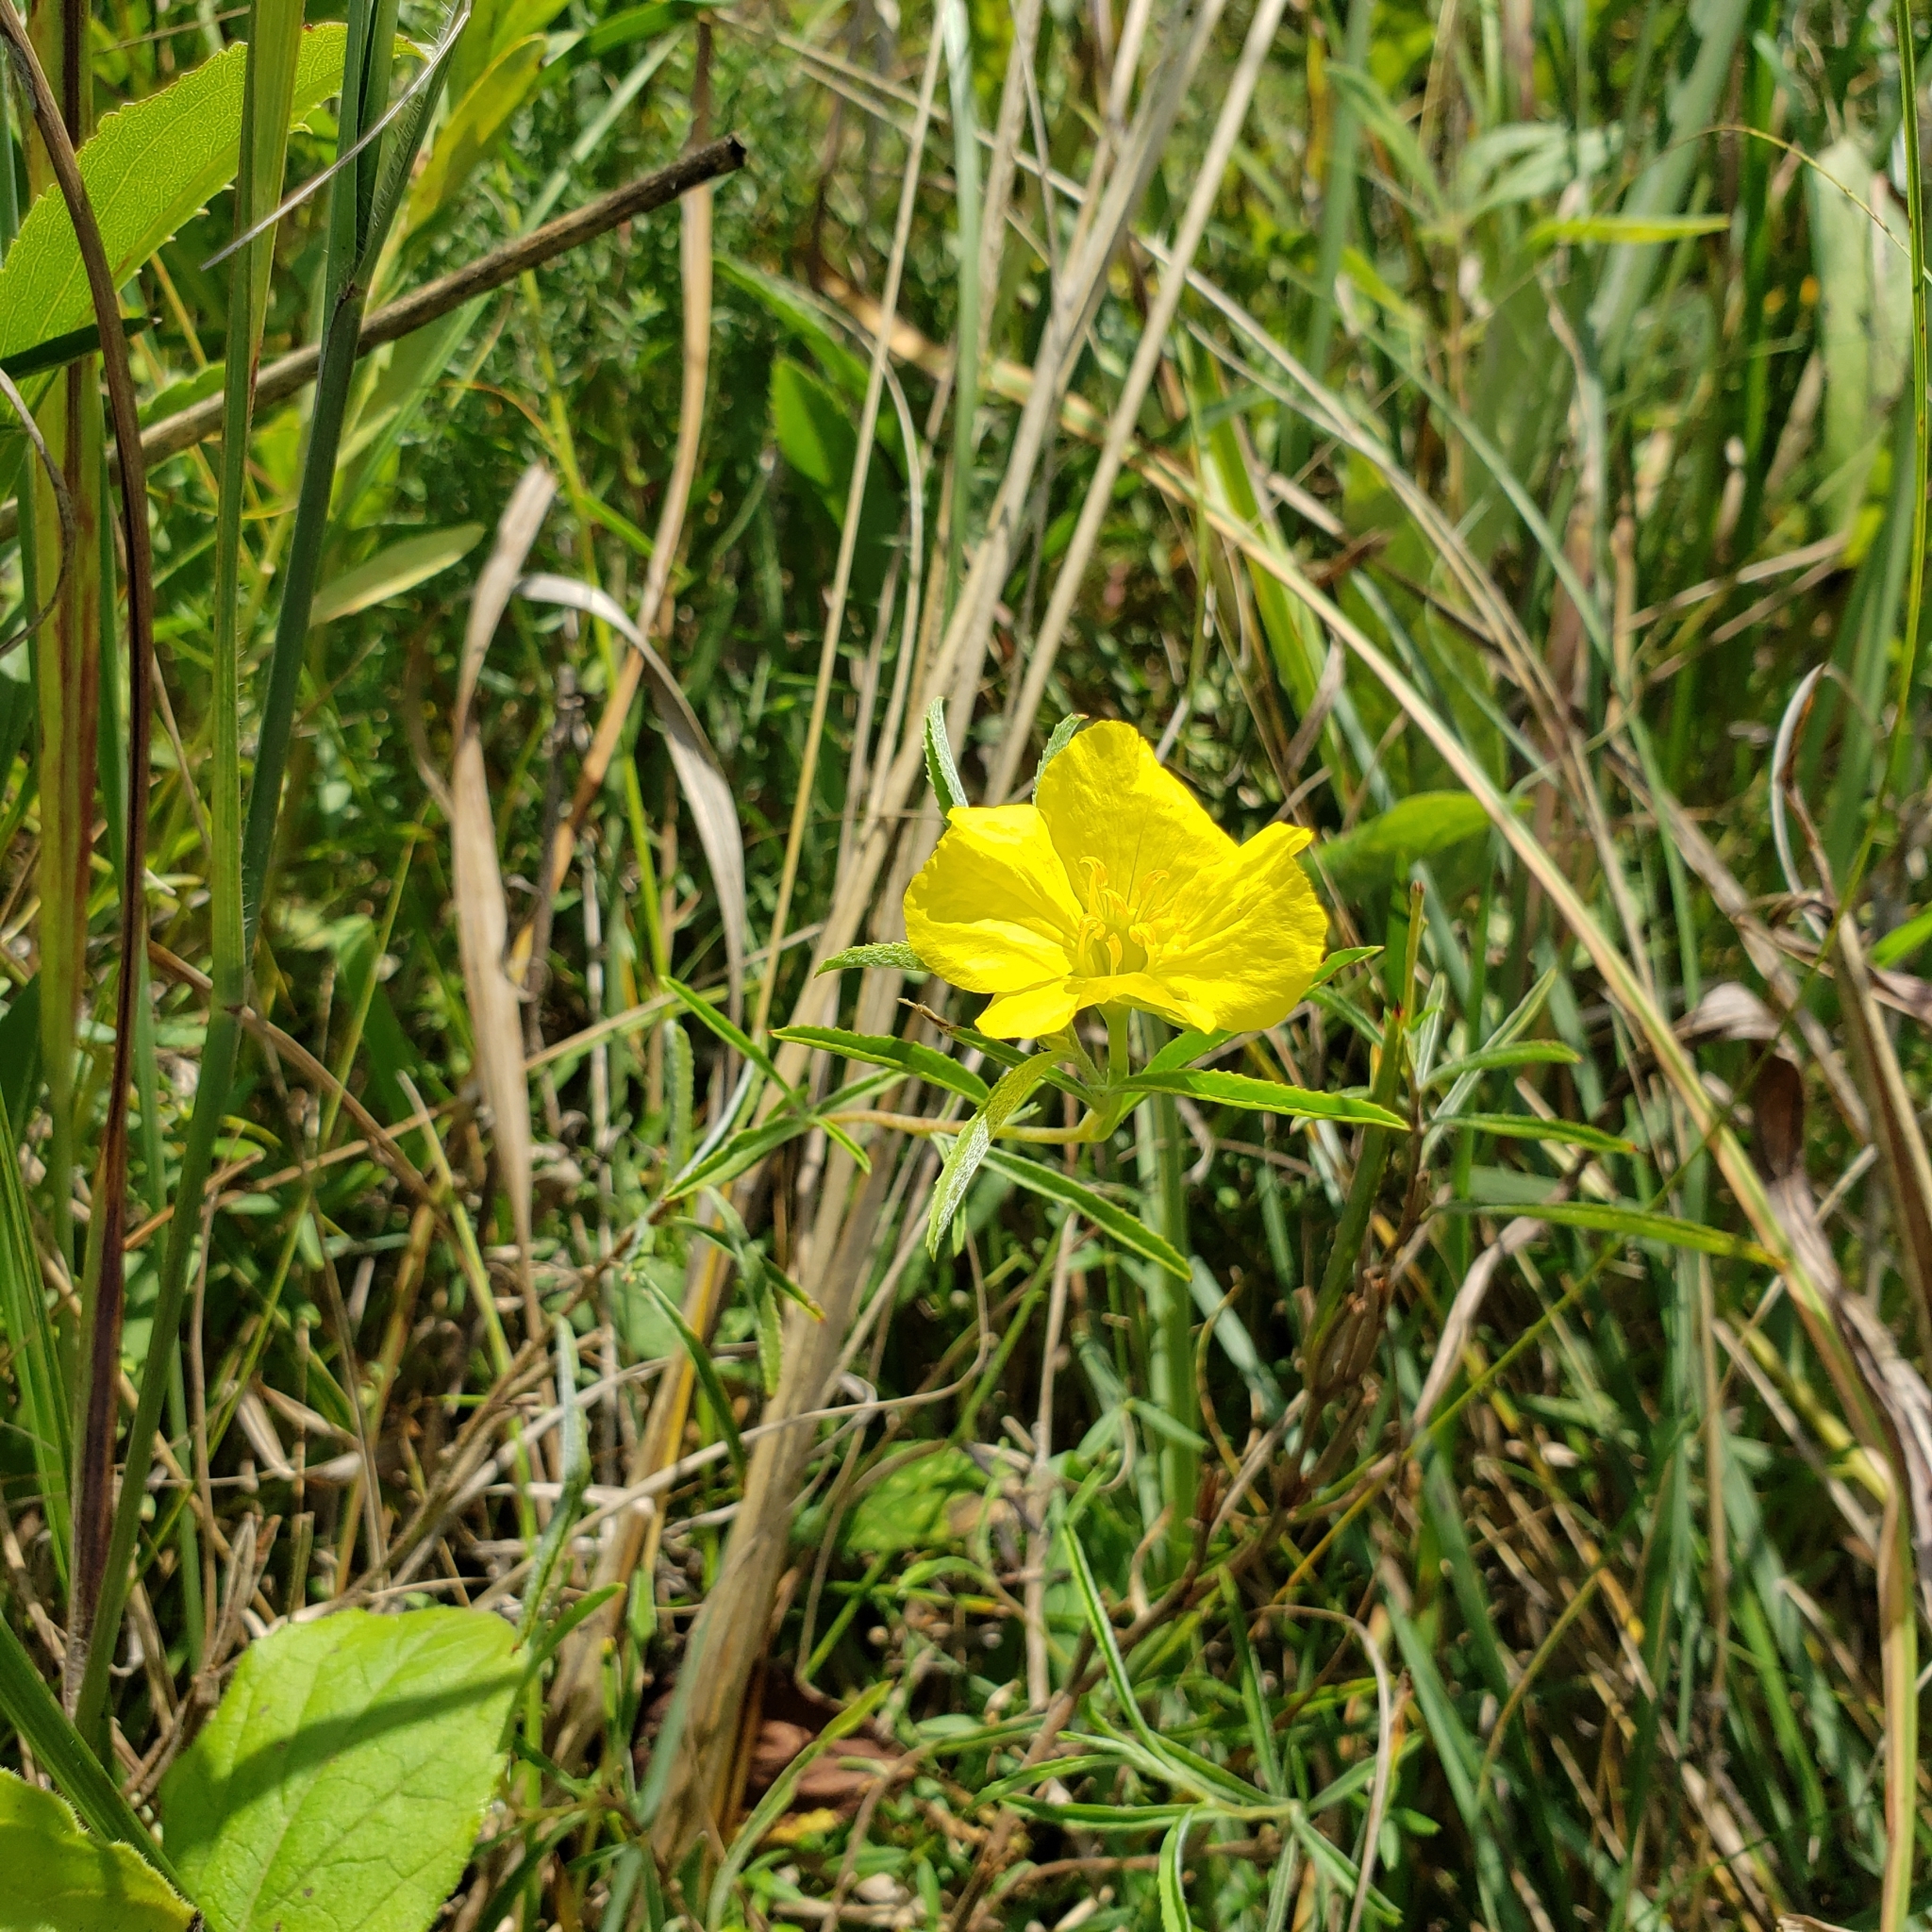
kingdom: Plantae
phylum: Tracheophyta
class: Magnoliopsida
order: Myrtales
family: Onagraceae
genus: Oenothera
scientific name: Oenothera serrulata
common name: Half-shrub calylophus
